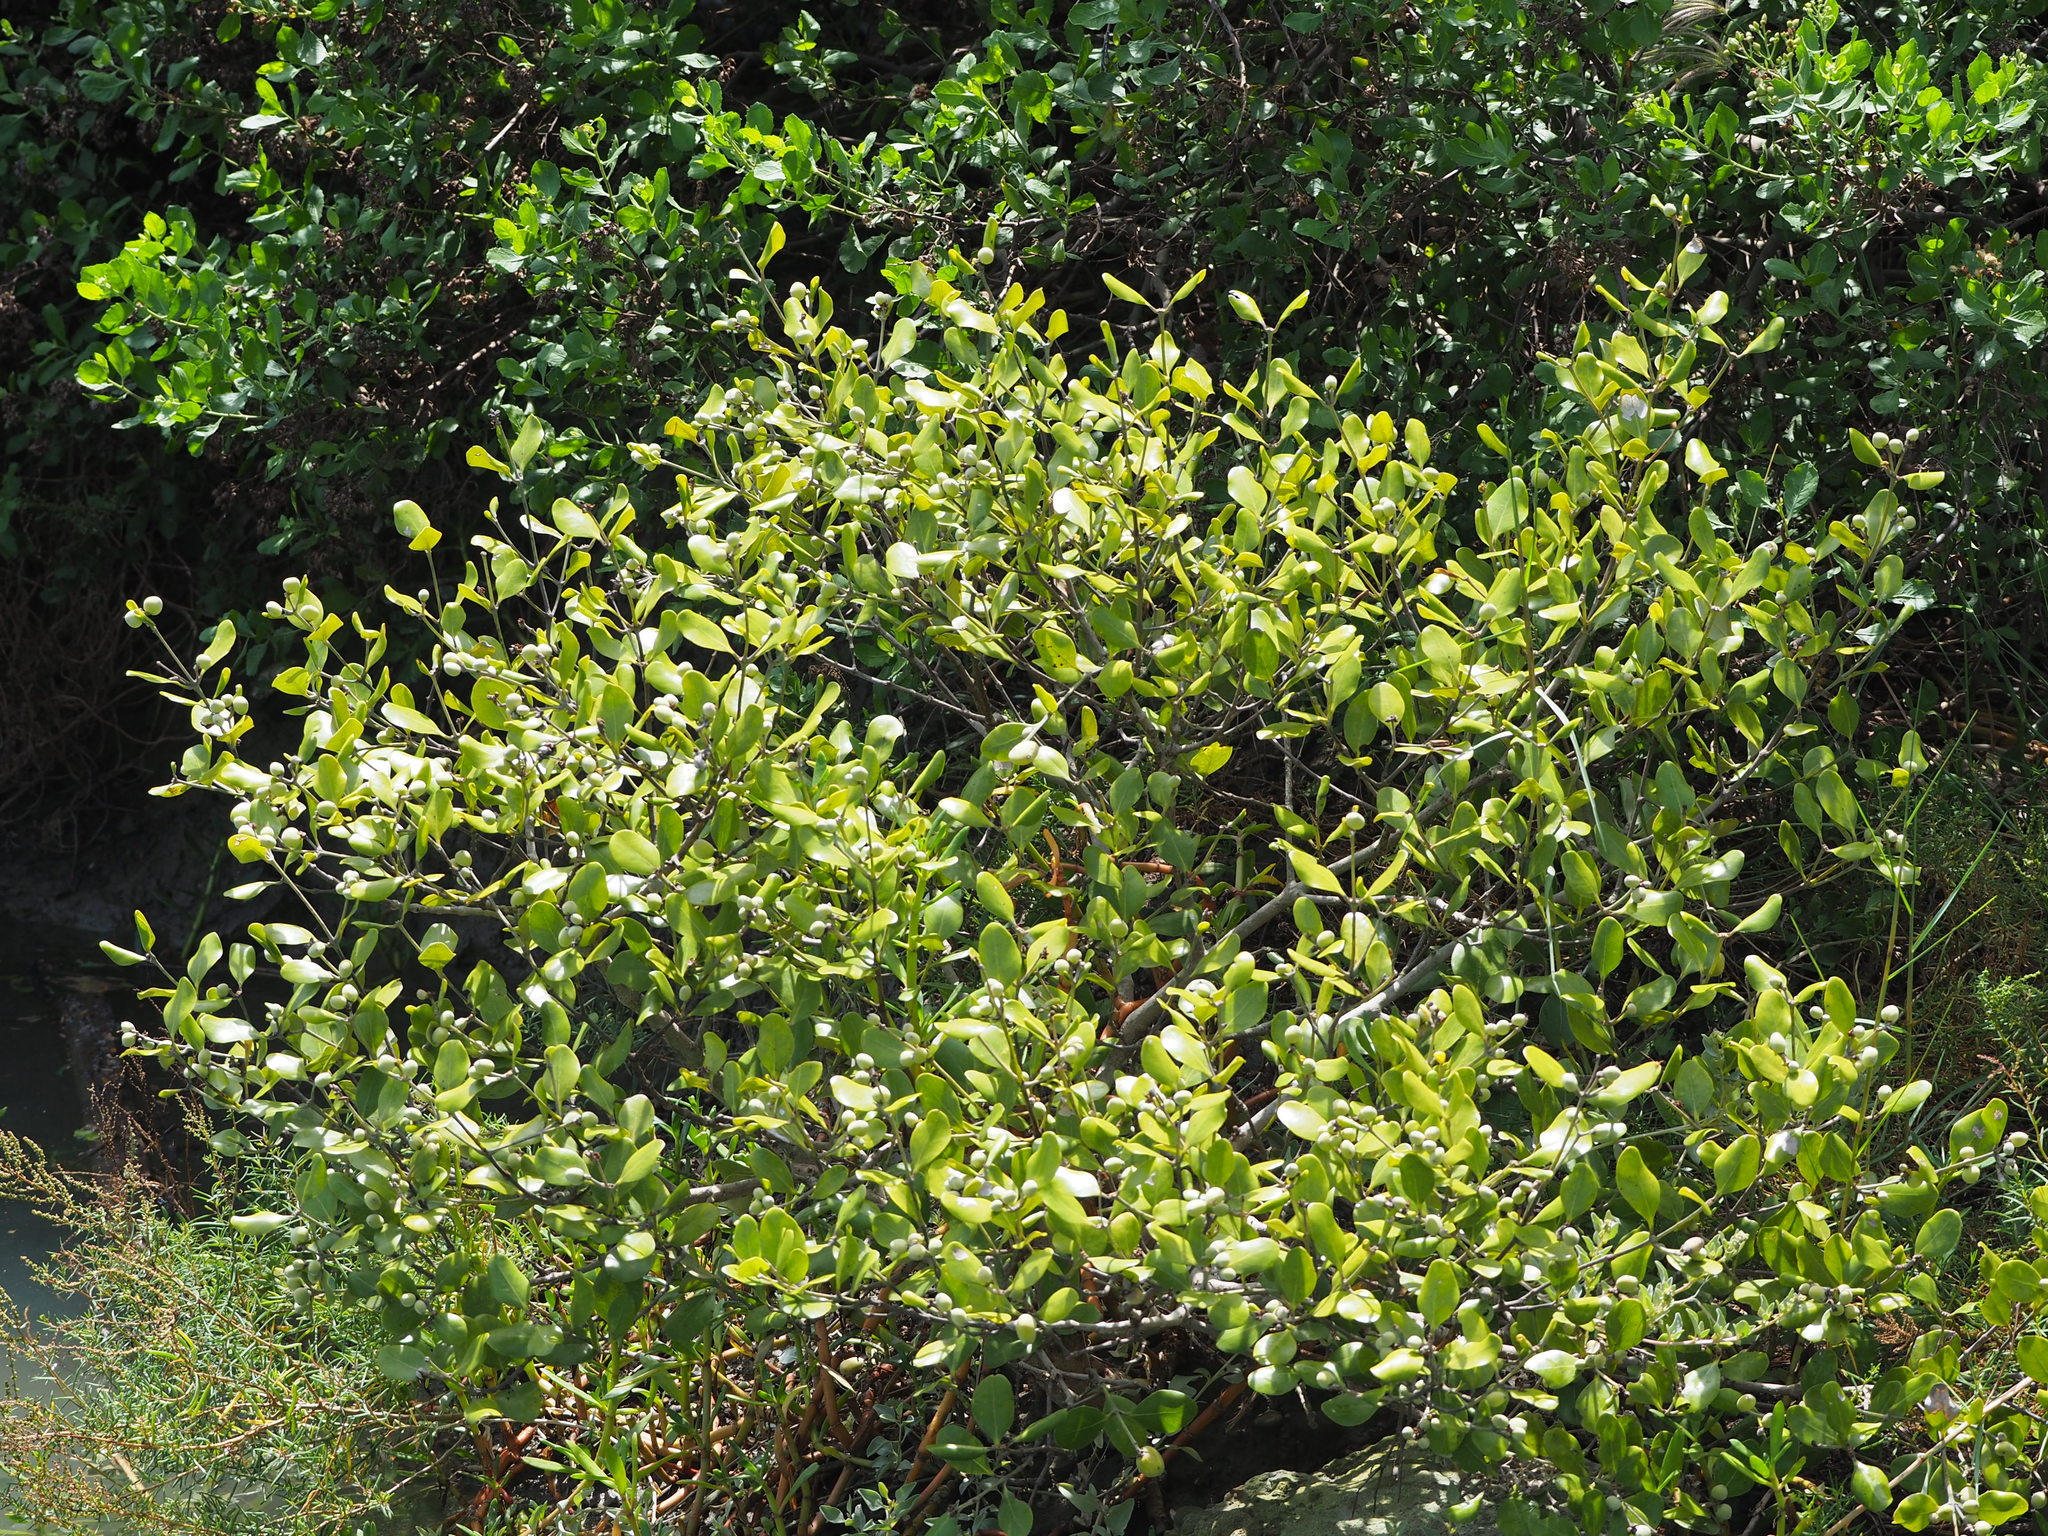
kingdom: Plantae
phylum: Tracheophyta
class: Magnoliopsida
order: Lamiales
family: Acanthaceae
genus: Avicennia
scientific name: Avicennia marina
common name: Gray mangrove
